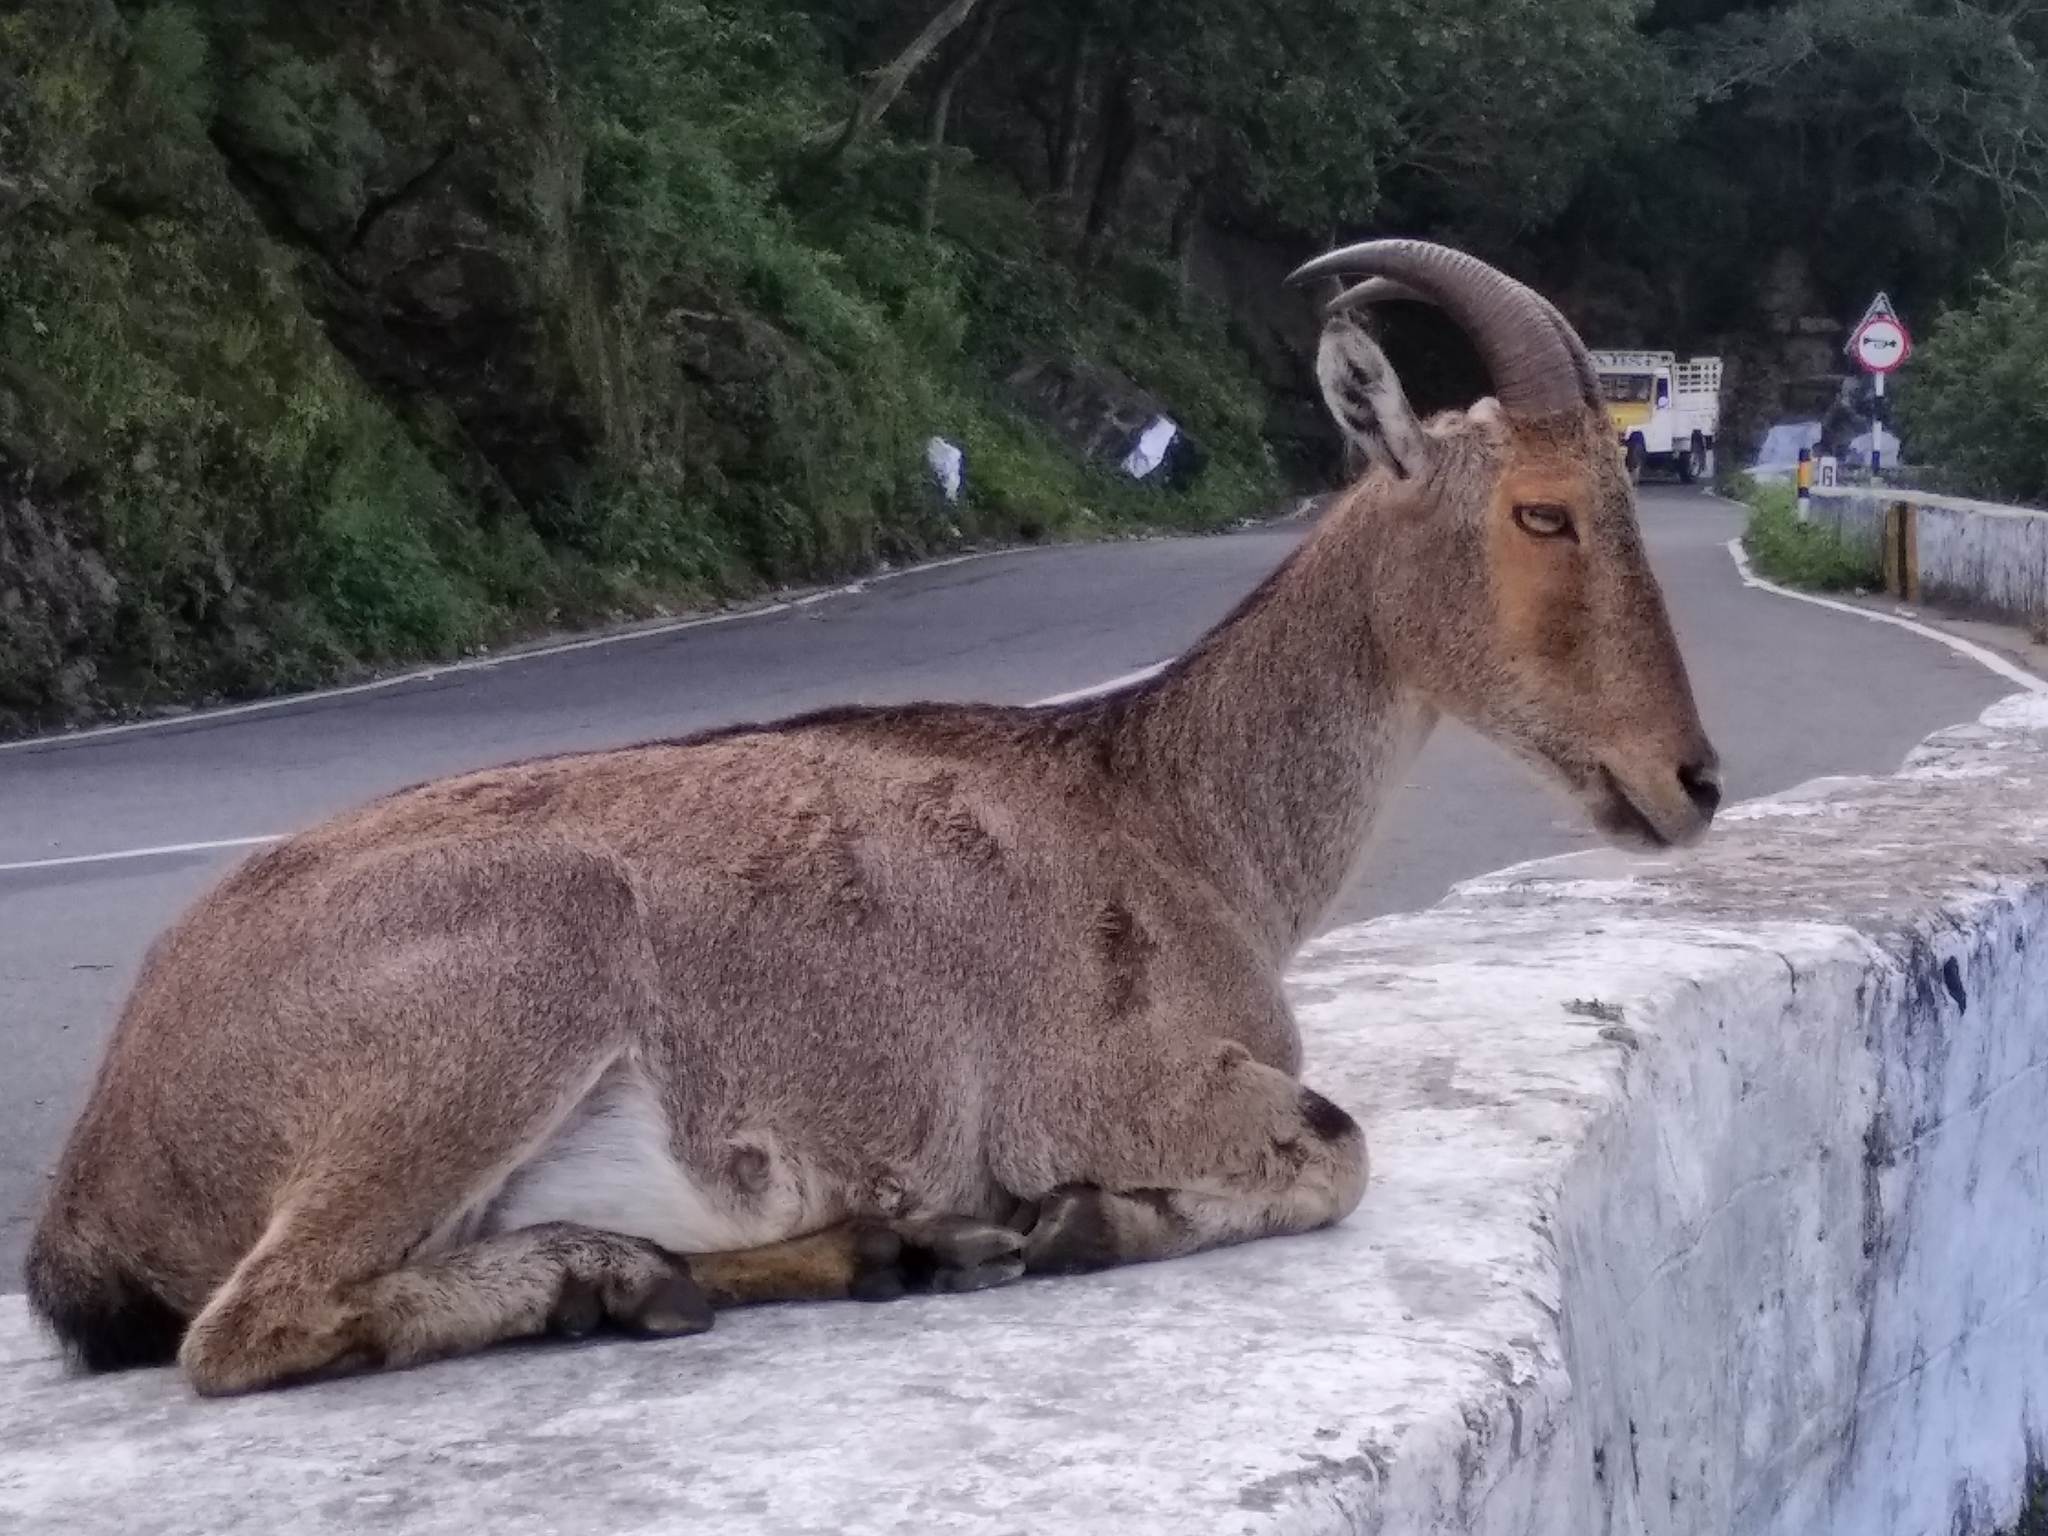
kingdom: Animalia
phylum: Chordata
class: Mammalia
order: Artiodactyla
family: Bovidae
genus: Hemitragus
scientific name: Hemitragus hylocrius
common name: Nilgiri tahr
